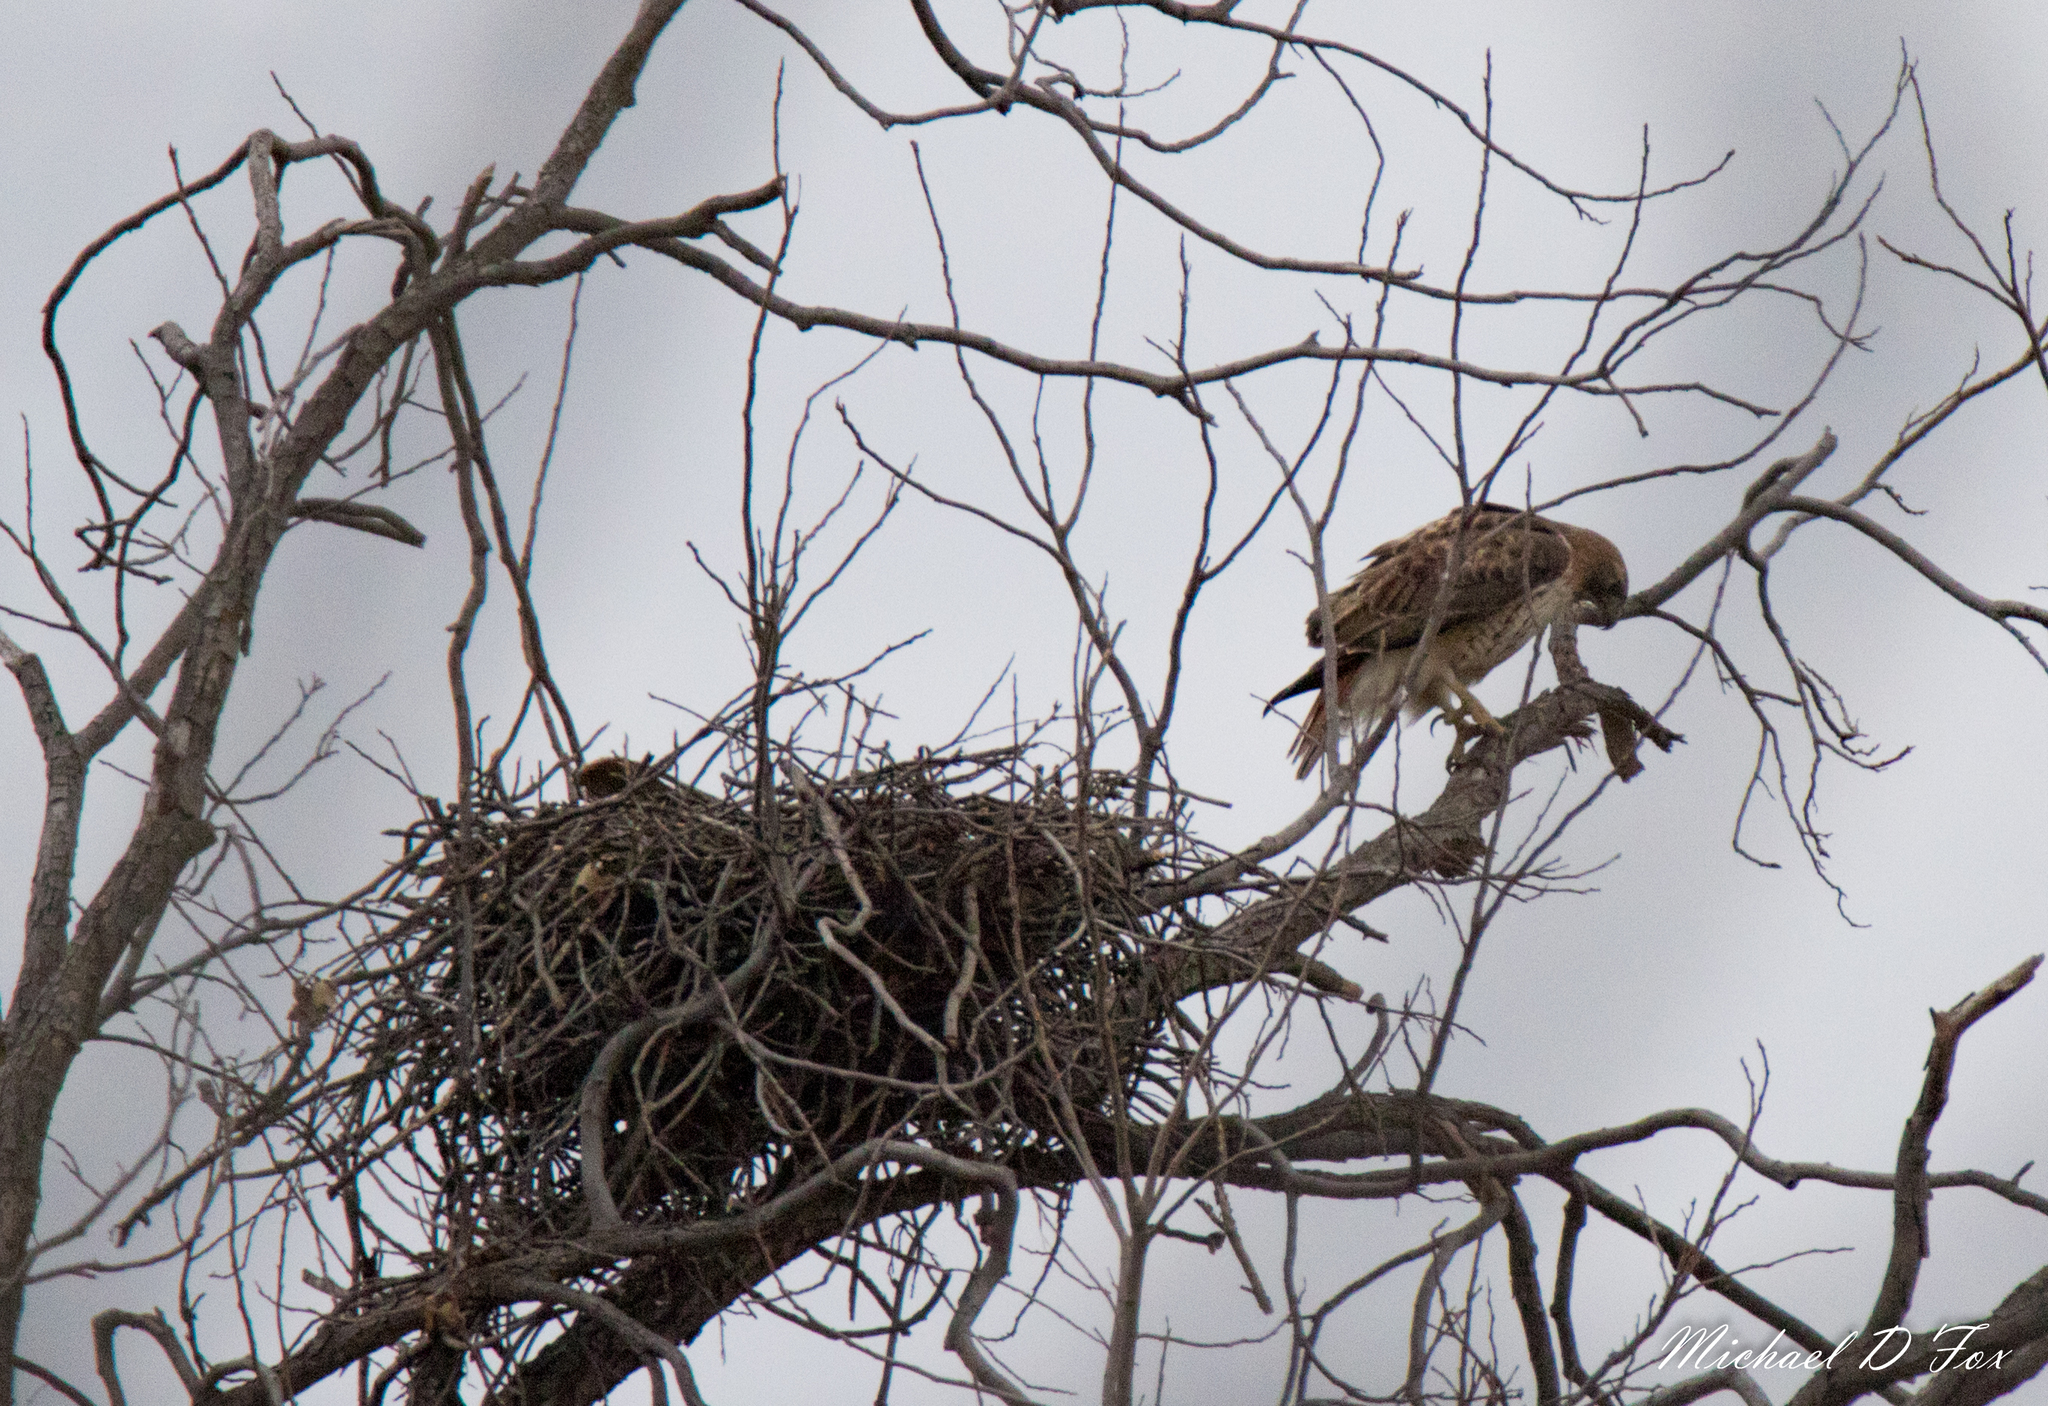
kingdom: Animalia
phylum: Chordata
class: Aves
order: Accipitriformes
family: Accipitridae
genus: Buteo
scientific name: Buteo jamaicensis
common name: Red-tailed hawk
